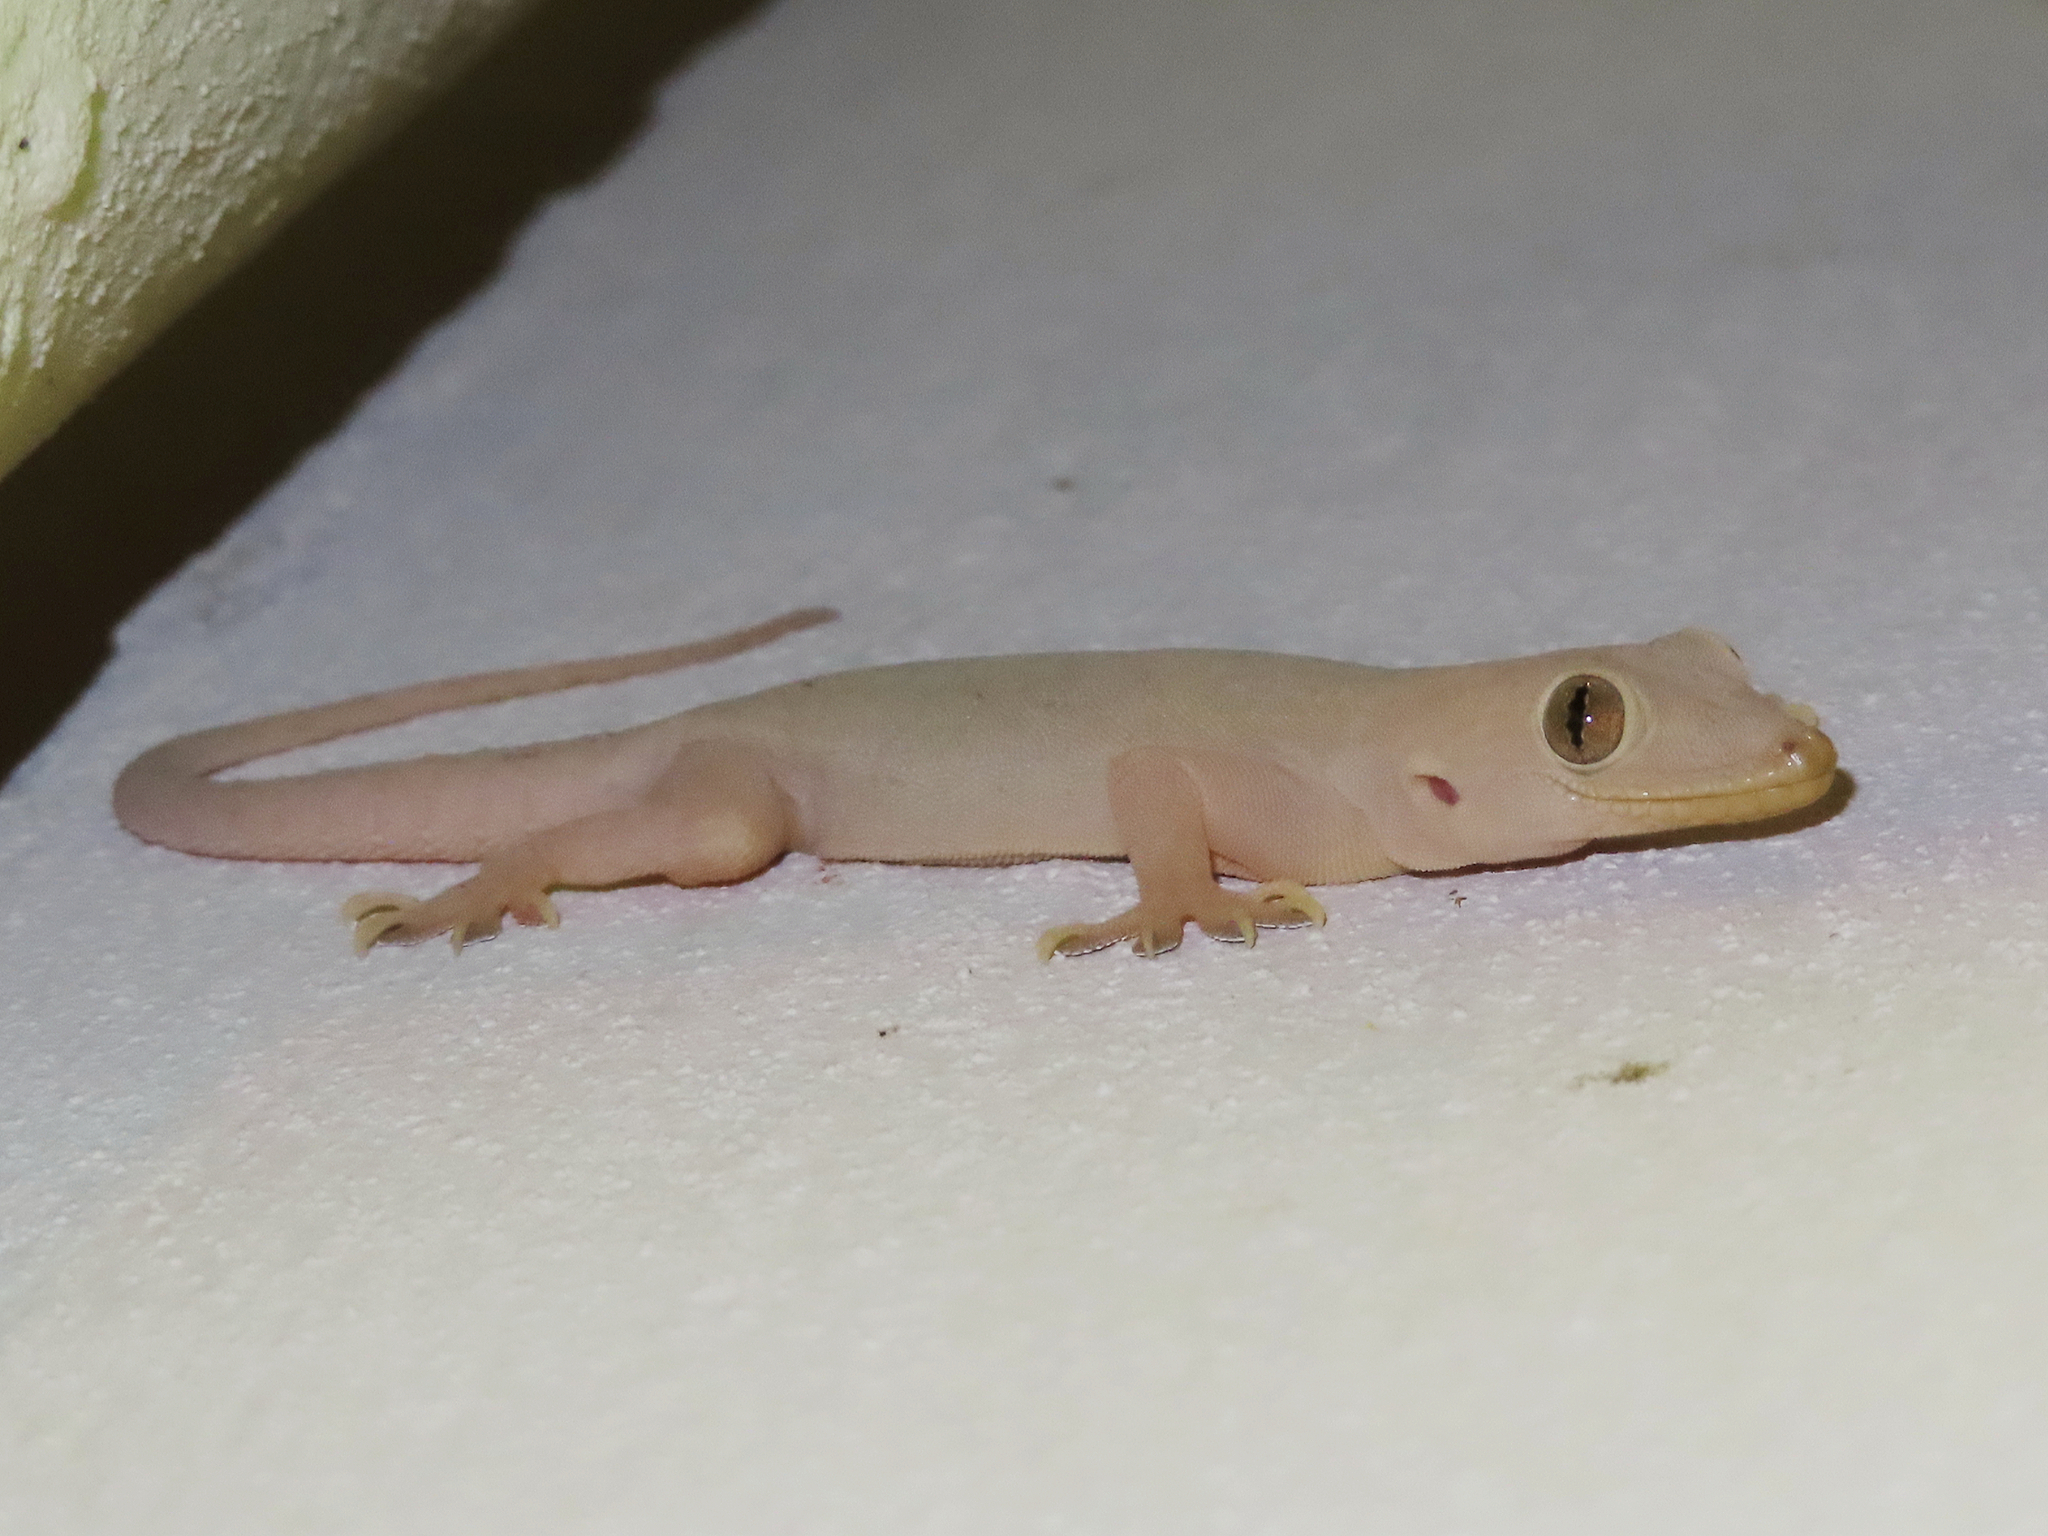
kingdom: Animalia
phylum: Chordata
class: Squamata
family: Gekkonidae
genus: Hemidactylus
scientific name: Hemidactylus flaviviridis
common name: Northern house gecko
